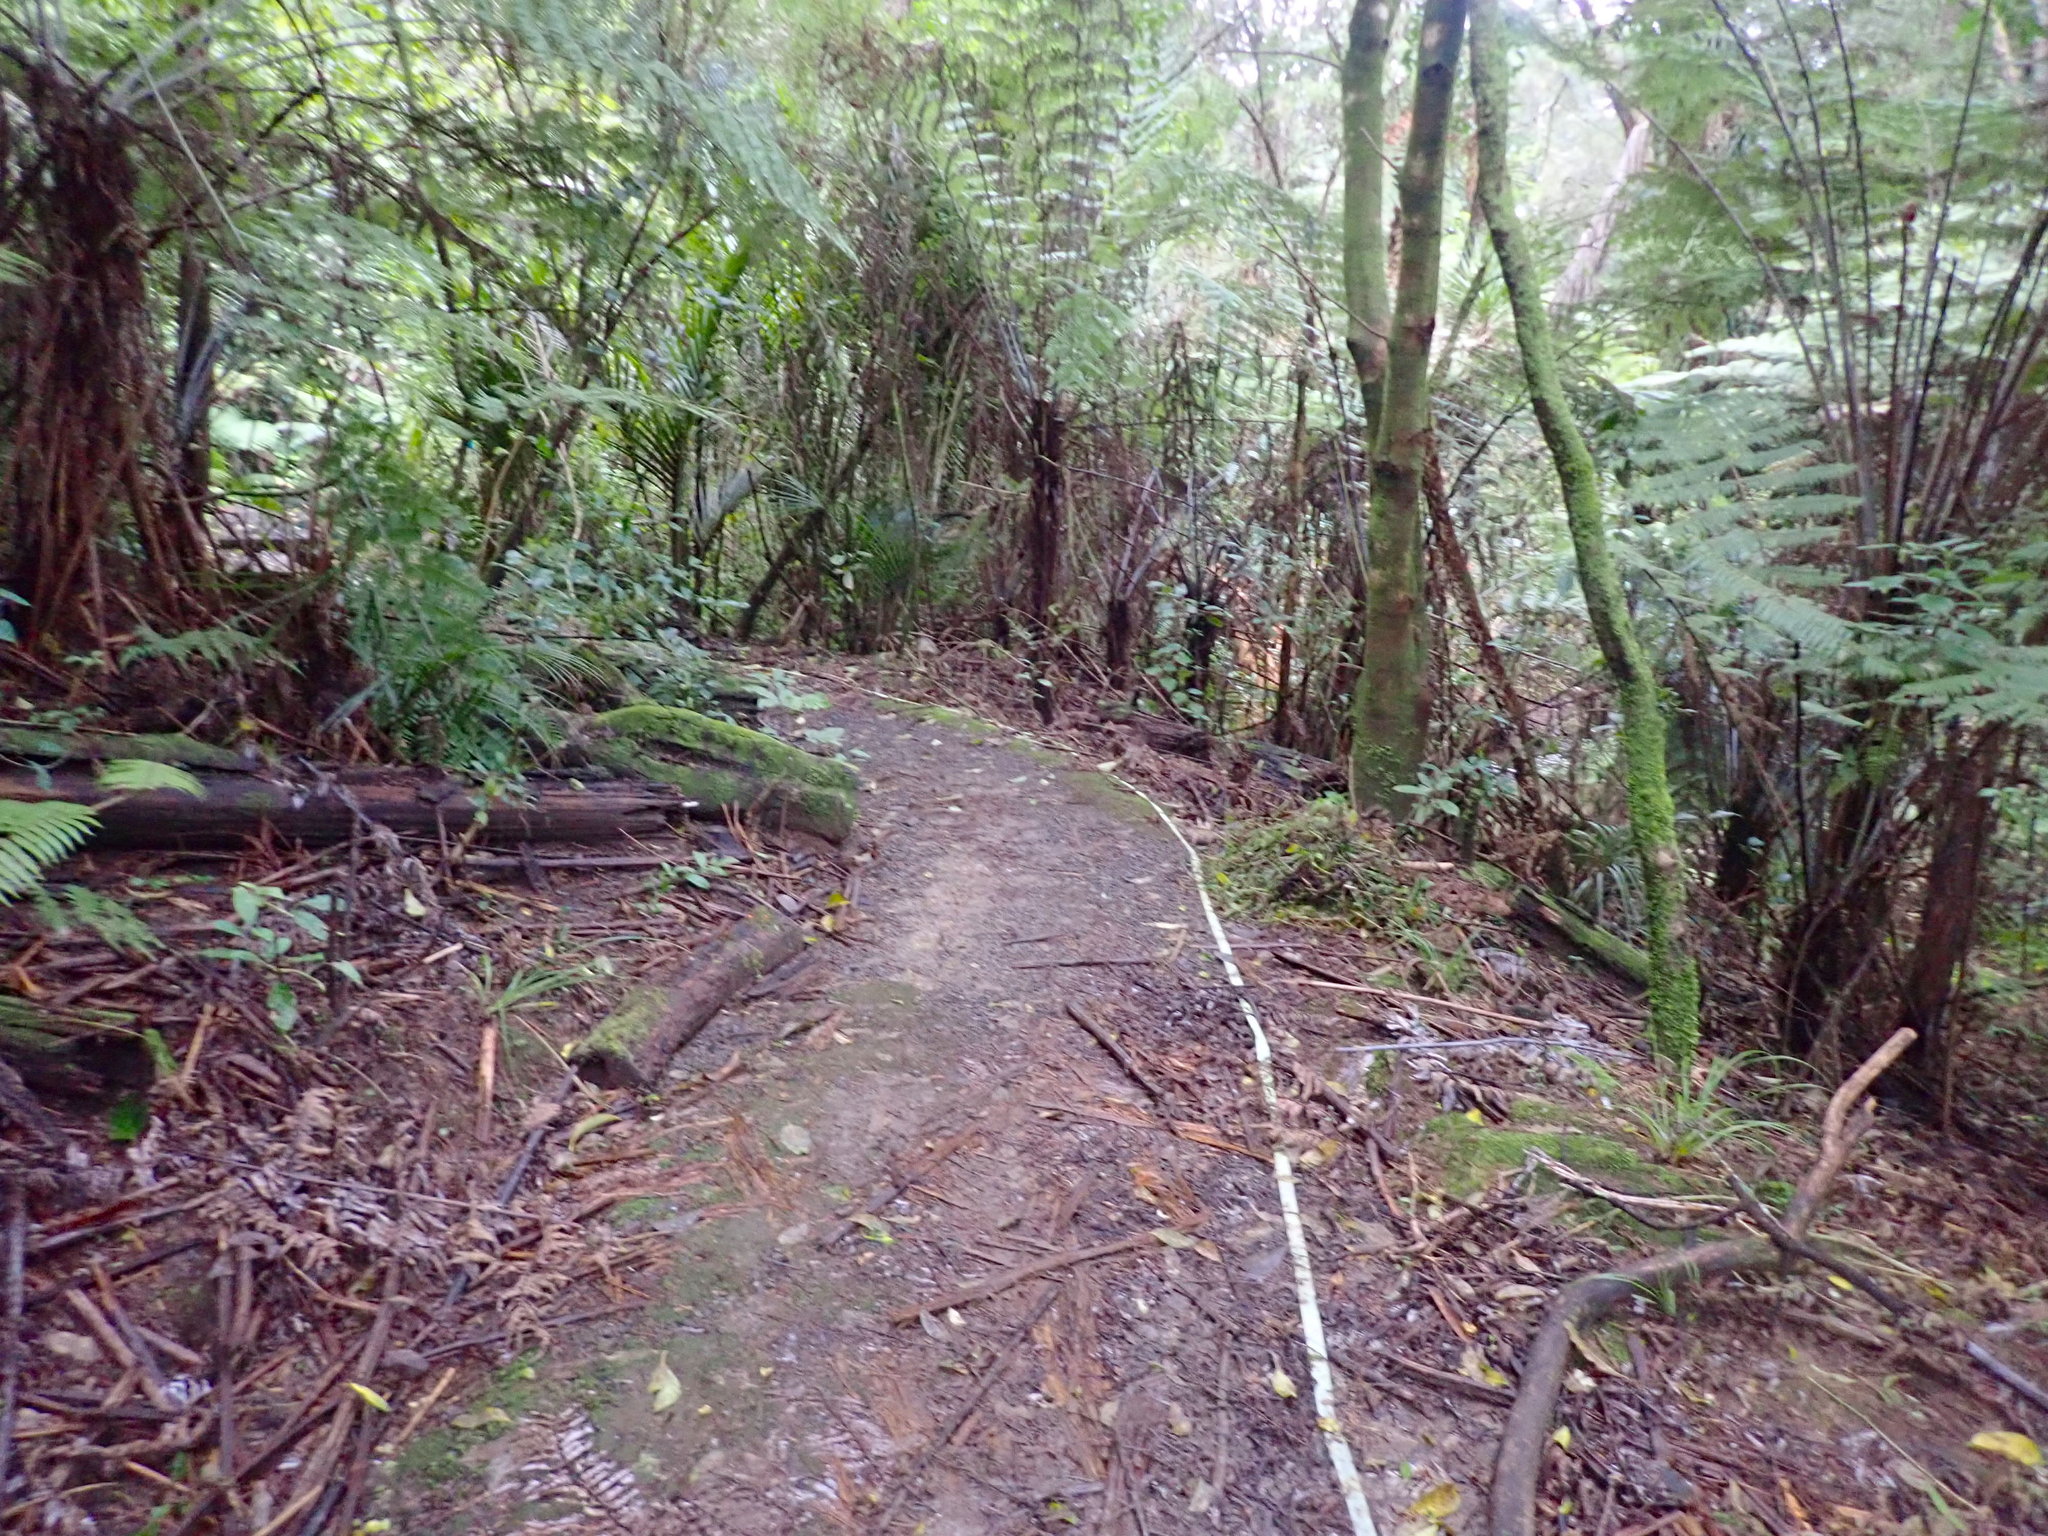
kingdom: Plantae
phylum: Tracheophyta
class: Liliopsida
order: Commelinales
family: Commelinaceae
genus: Tradescantia
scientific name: Tradescantia fluminensis
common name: Wandering-jew
